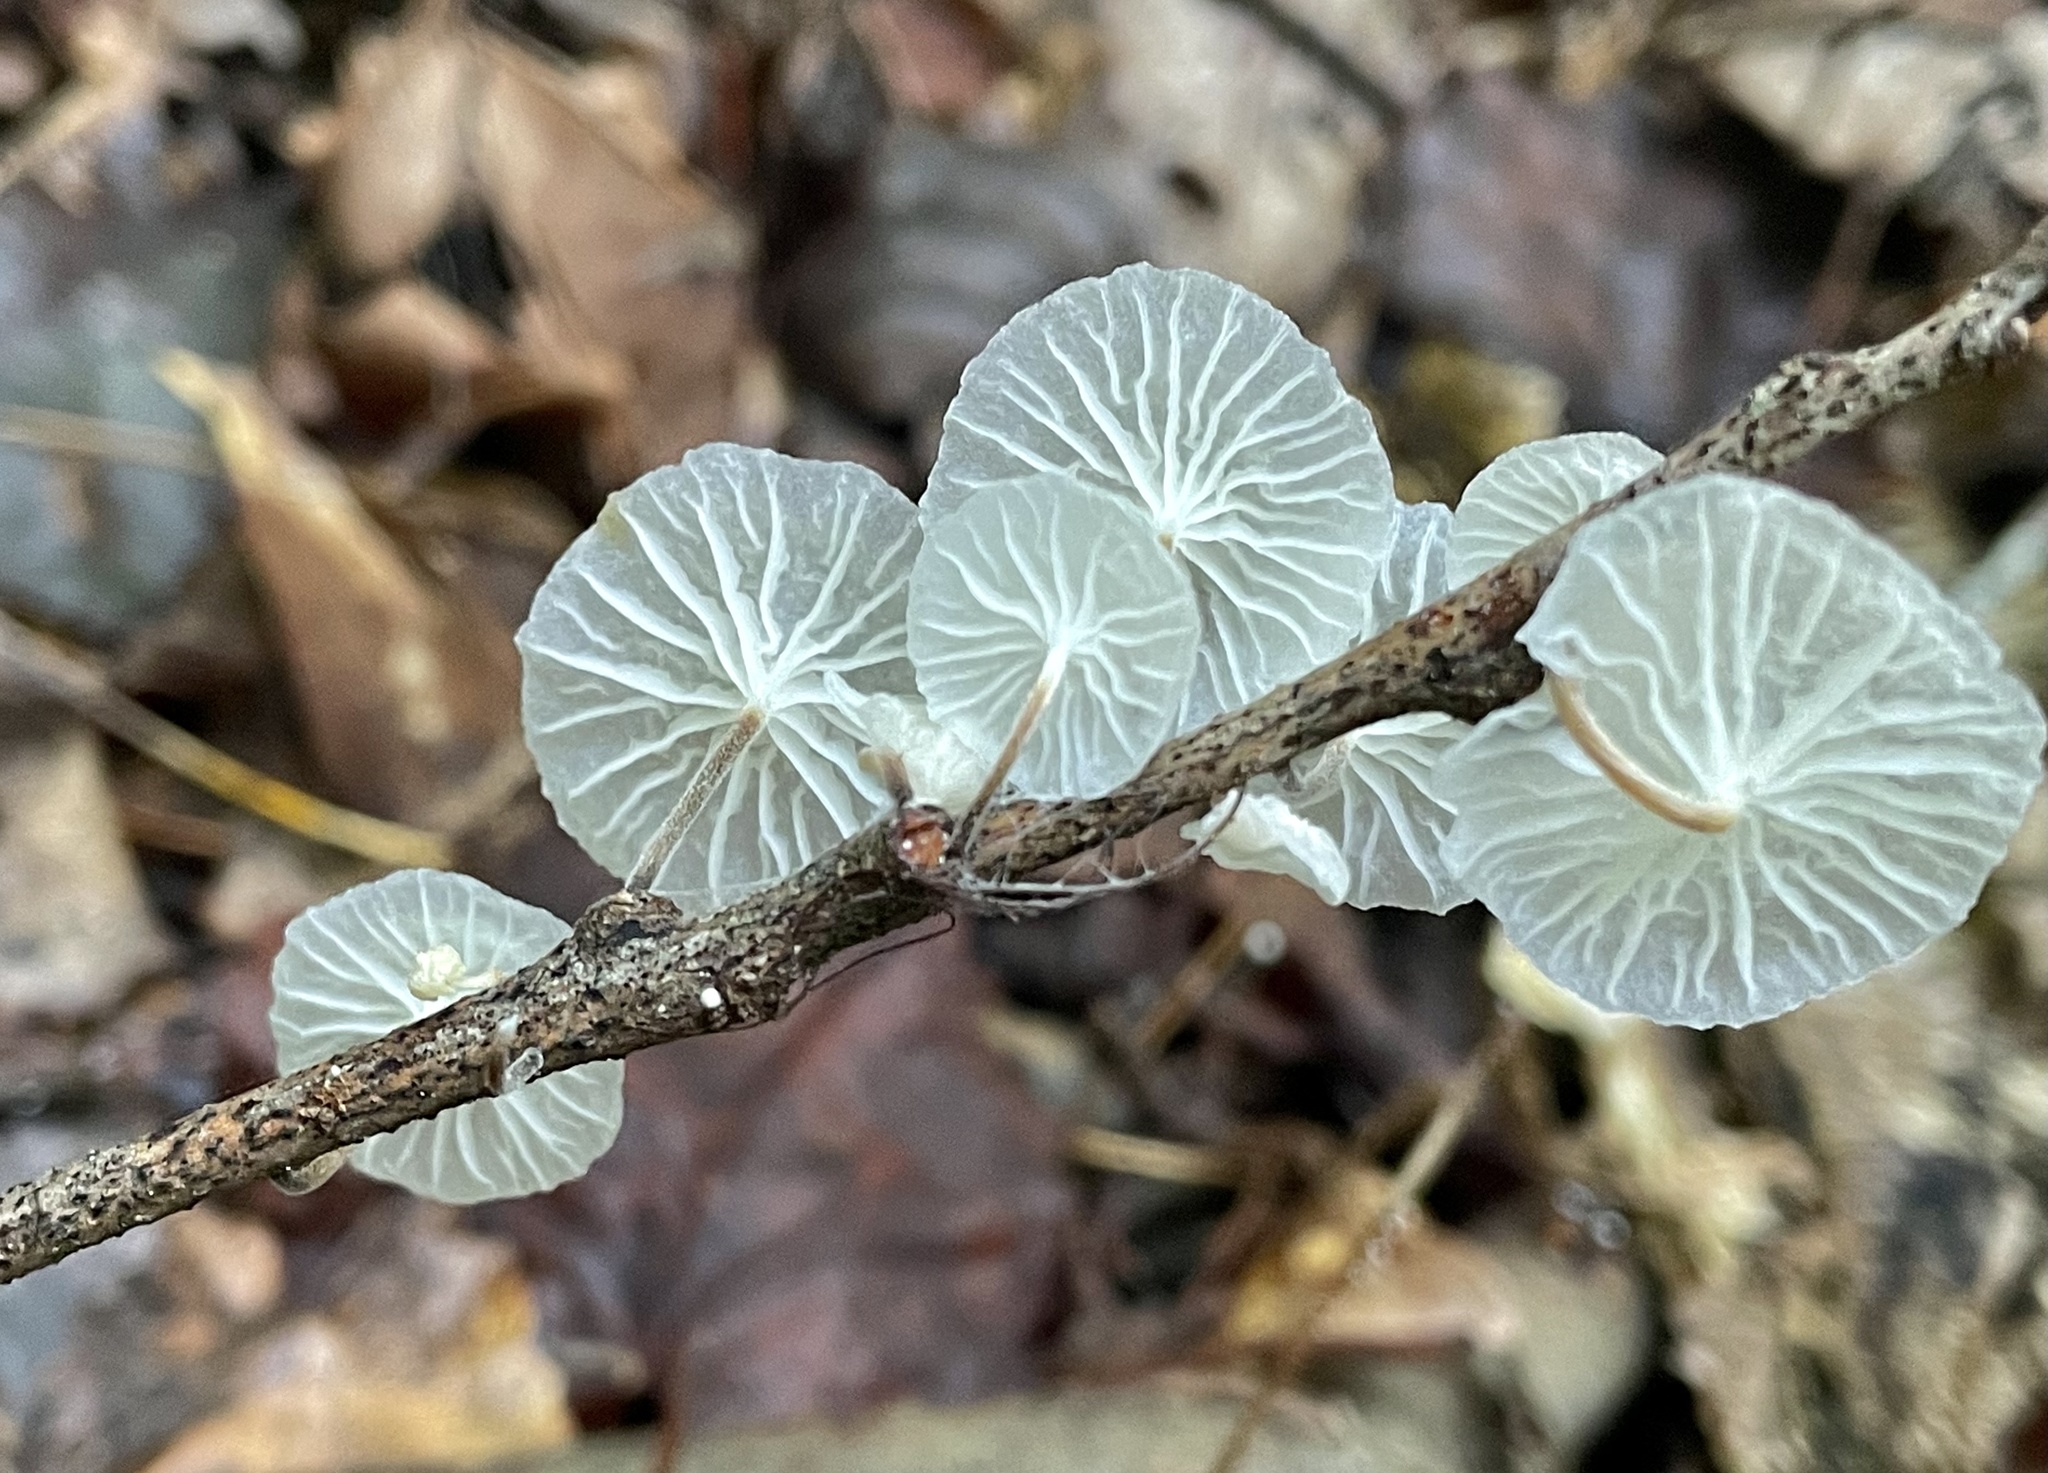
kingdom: Fungi
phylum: Basidiomycota
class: Agaricomycetes
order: Agaricales
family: Marasmiaceae
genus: Tetrapyrgos
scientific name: Tetrapyrgos nigripes
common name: Black-stalked marasmius
